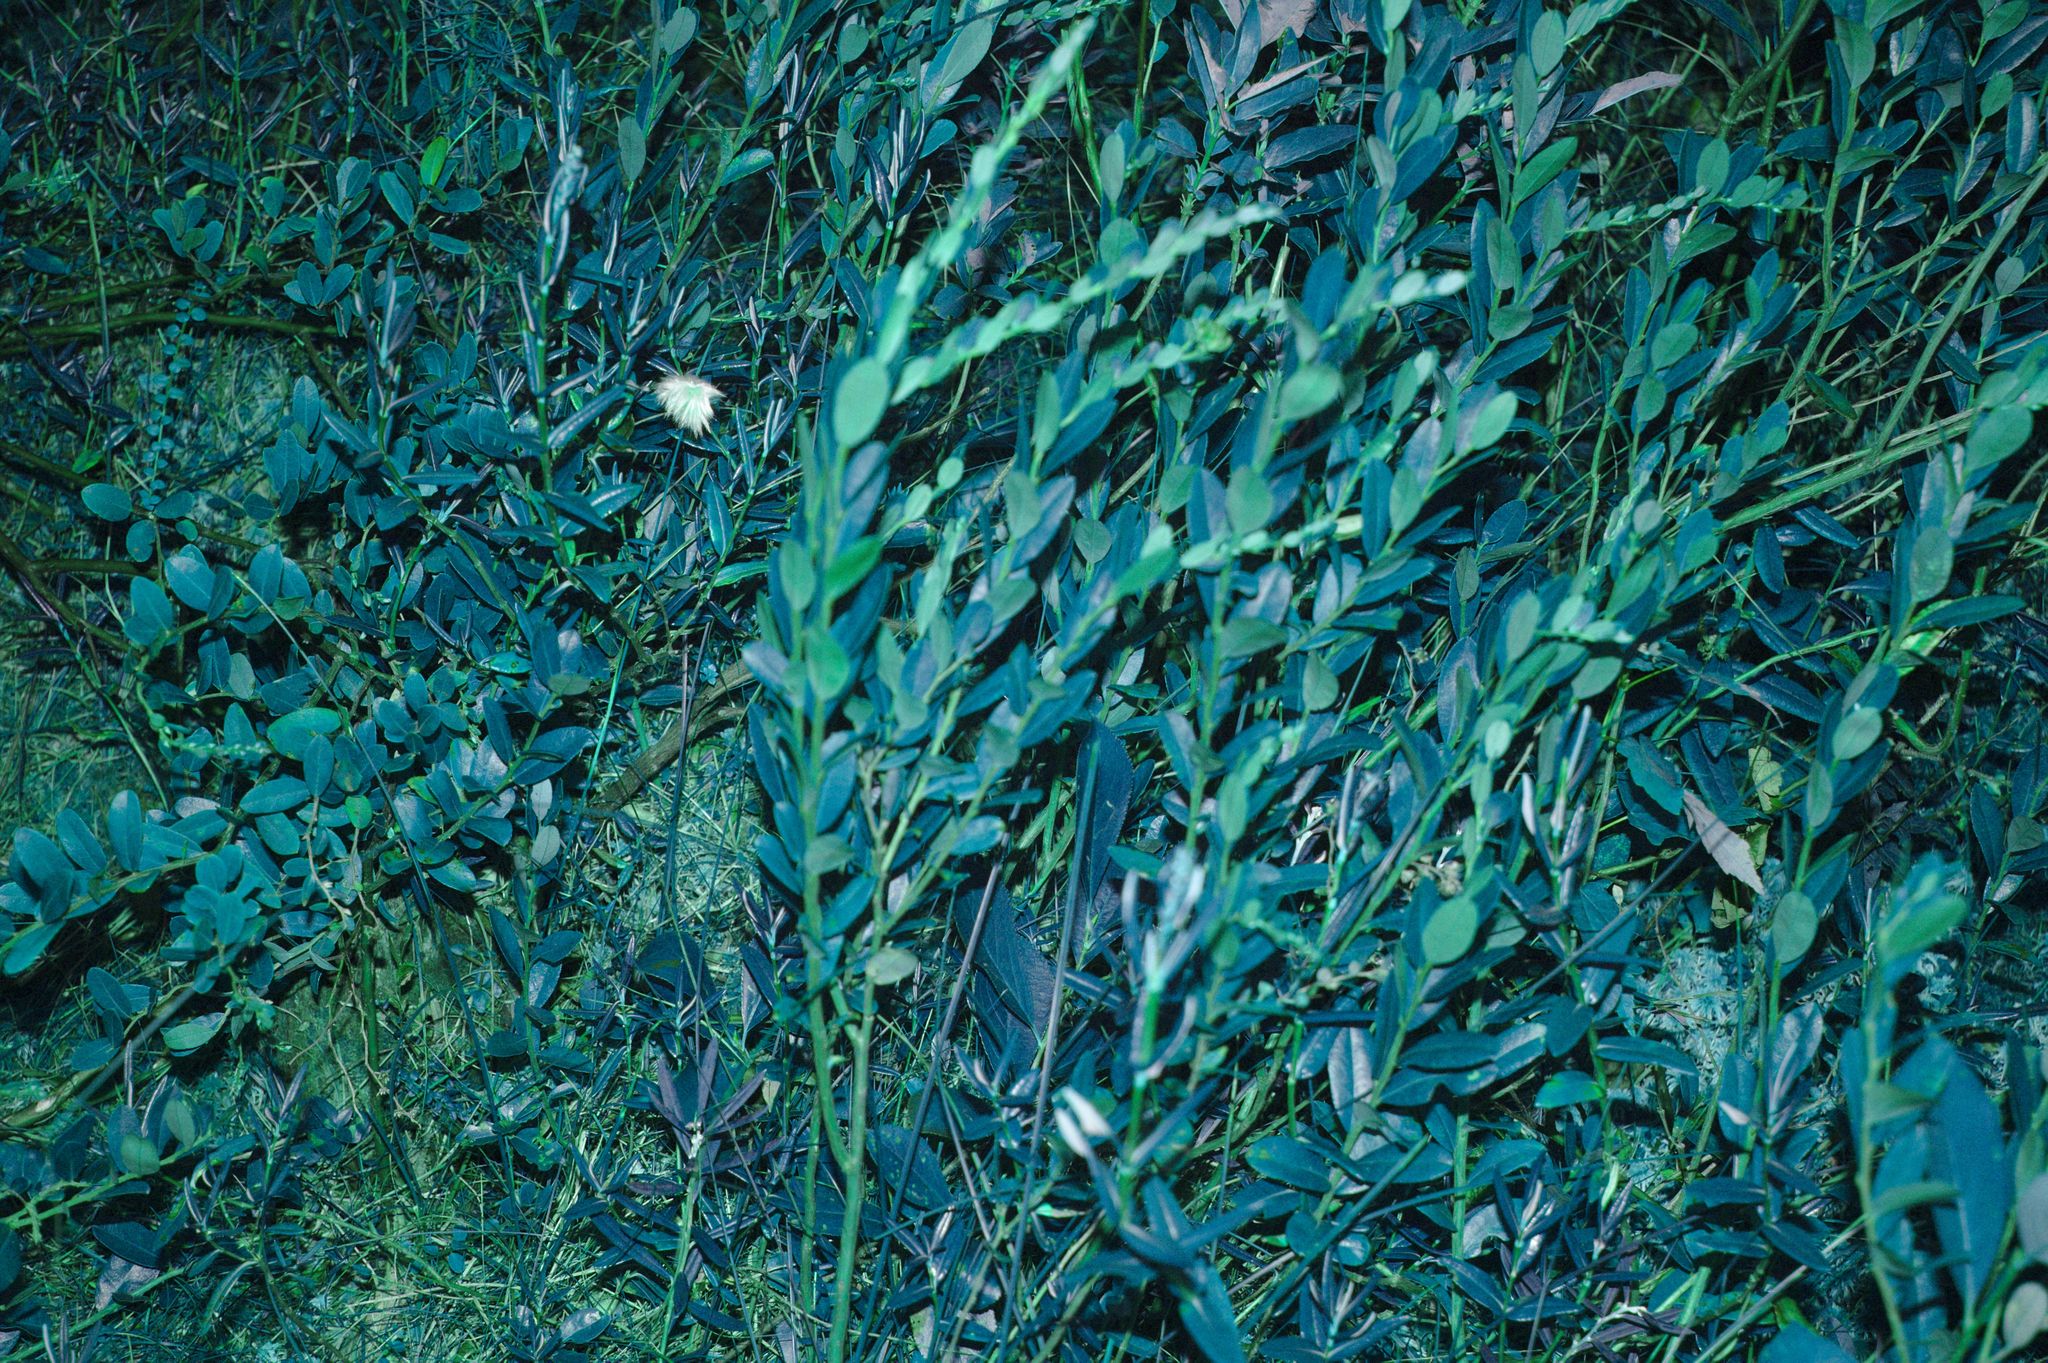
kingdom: Plantae
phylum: Tracheophyta
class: Magnoliopsida
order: Ericales
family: Ericaceae
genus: Chamaedaphne
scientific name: Chamaedaphne calyculata
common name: Leatherleaf
